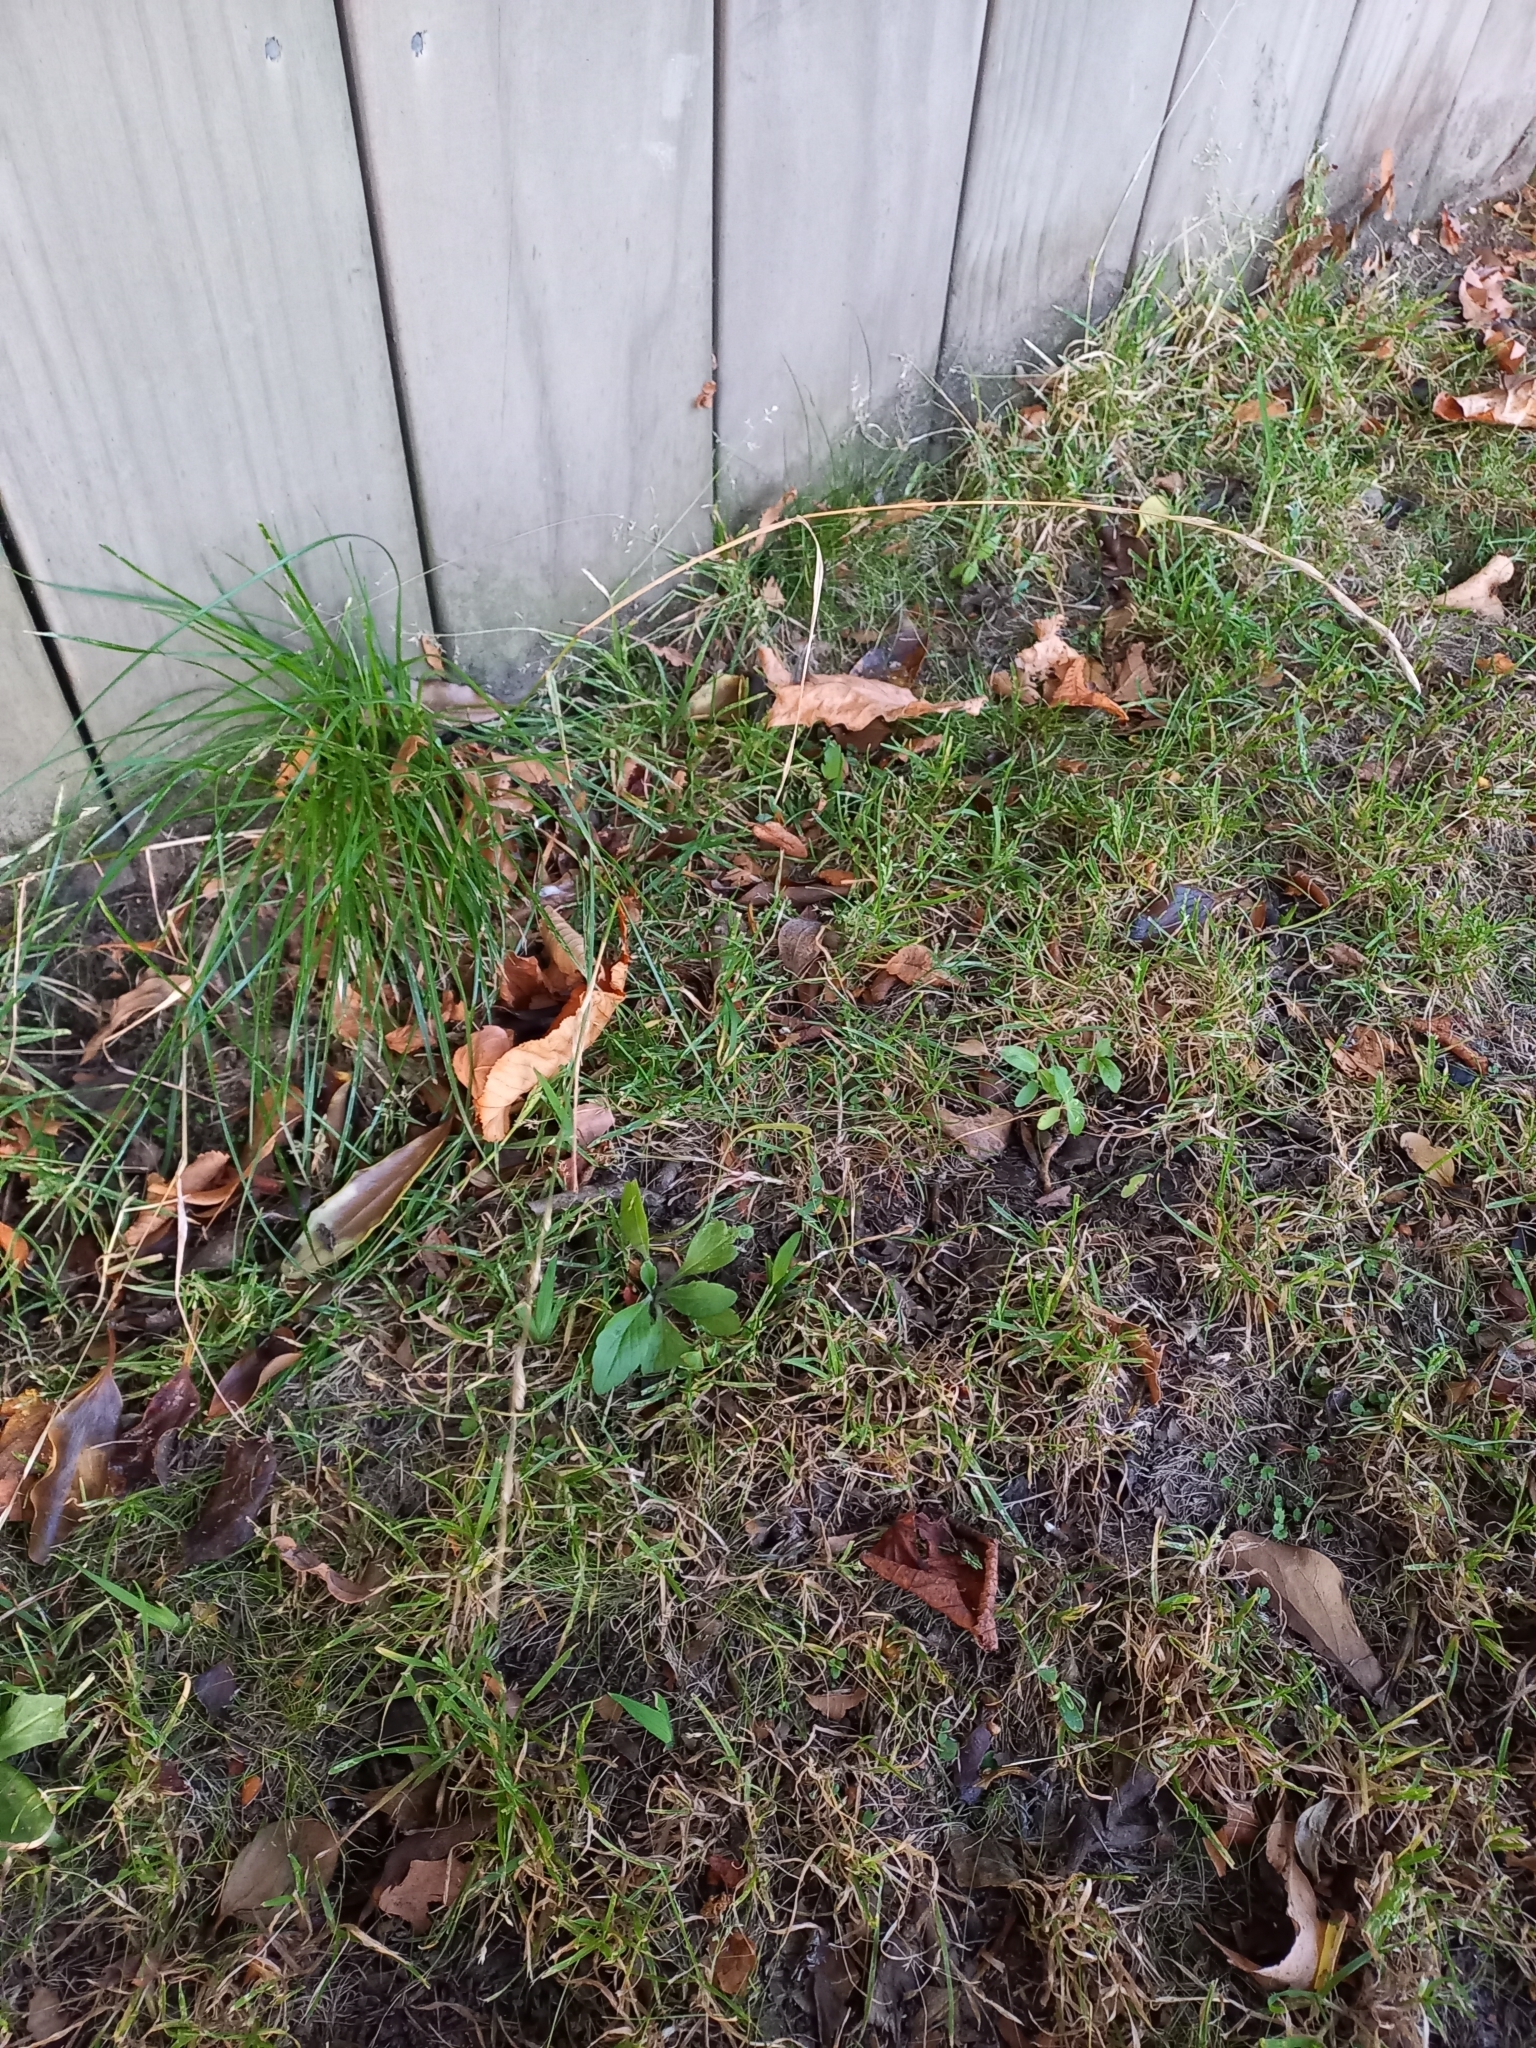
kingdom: Plantae
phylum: Tracheophyta
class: Liliopsida
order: Poales
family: Poaceae
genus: Lolium
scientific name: Lolium perenne
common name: Perennial ryegrass
